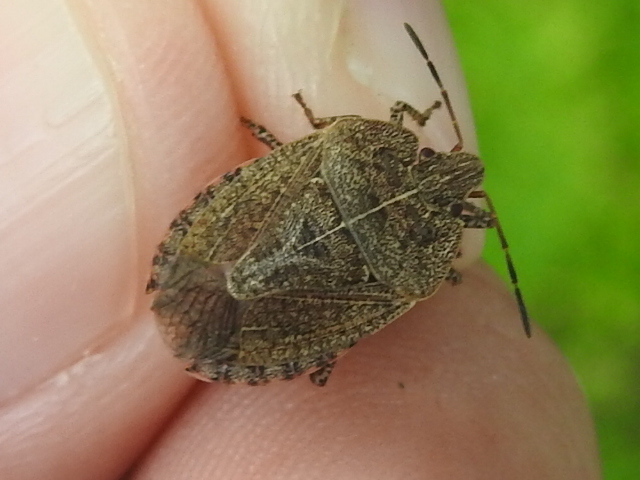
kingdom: Animalia
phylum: Arthropoda
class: Insecta
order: Hemiptera
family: Pentatomidae
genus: Menecles
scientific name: Menecles insertus
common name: Elf shoe stink bug
